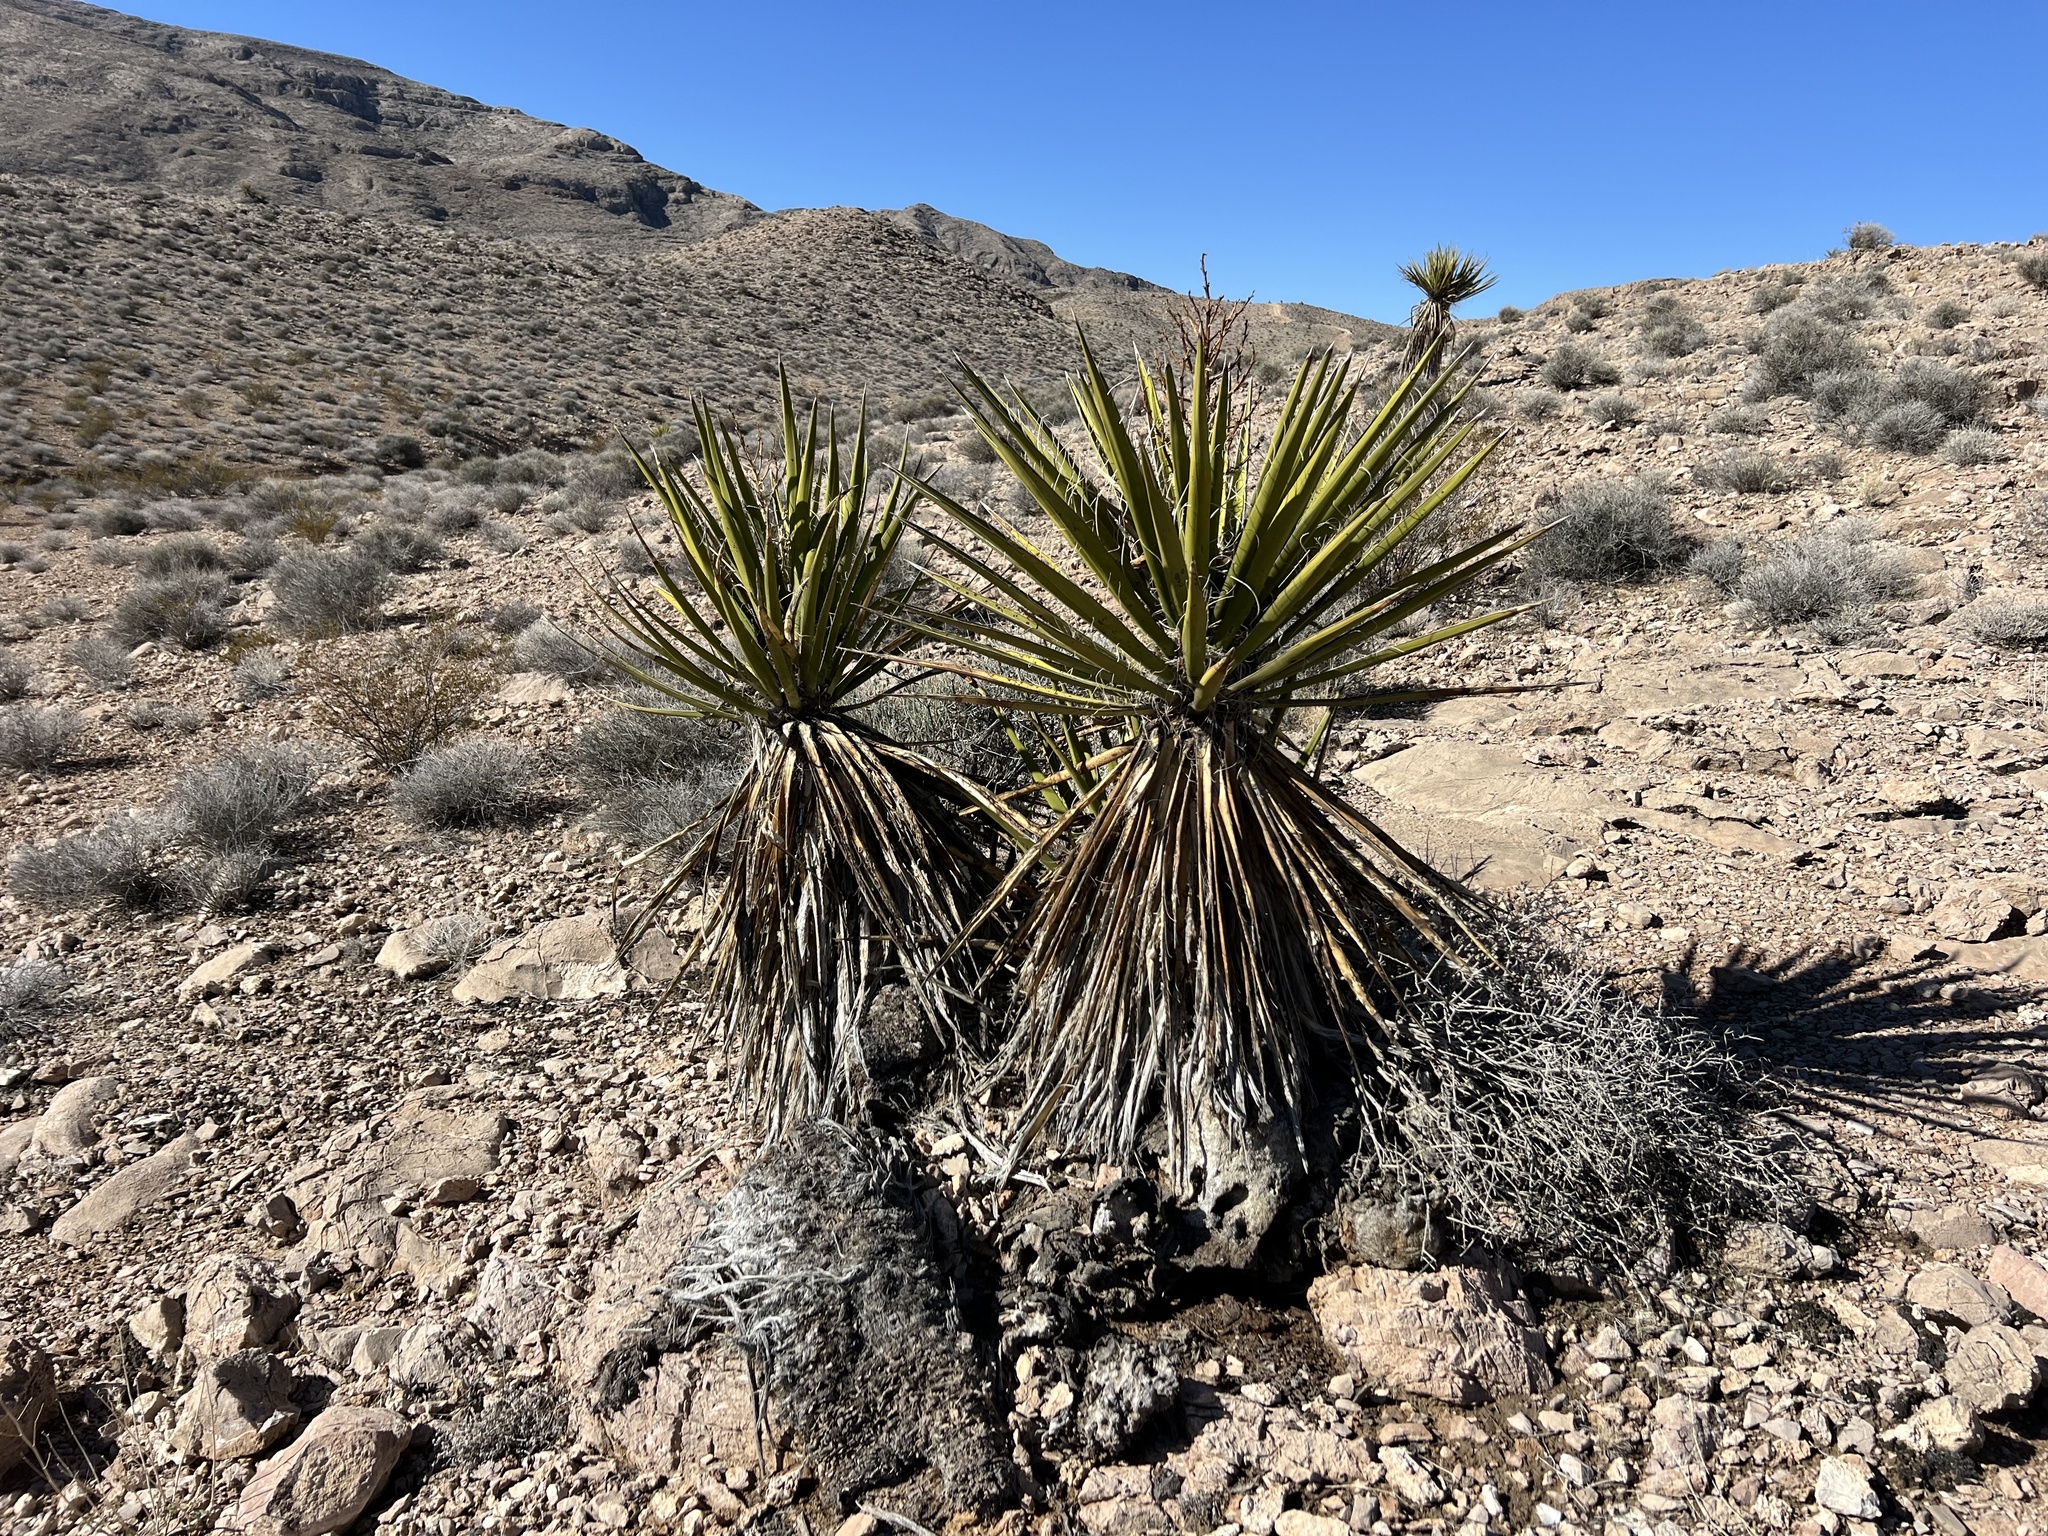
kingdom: Plantae
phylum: Tracheophyta
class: Liliopsida
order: Asparagales
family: Asparagaceae
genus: Yucca
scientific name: Yucca schidigera
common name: Mojave yucca
